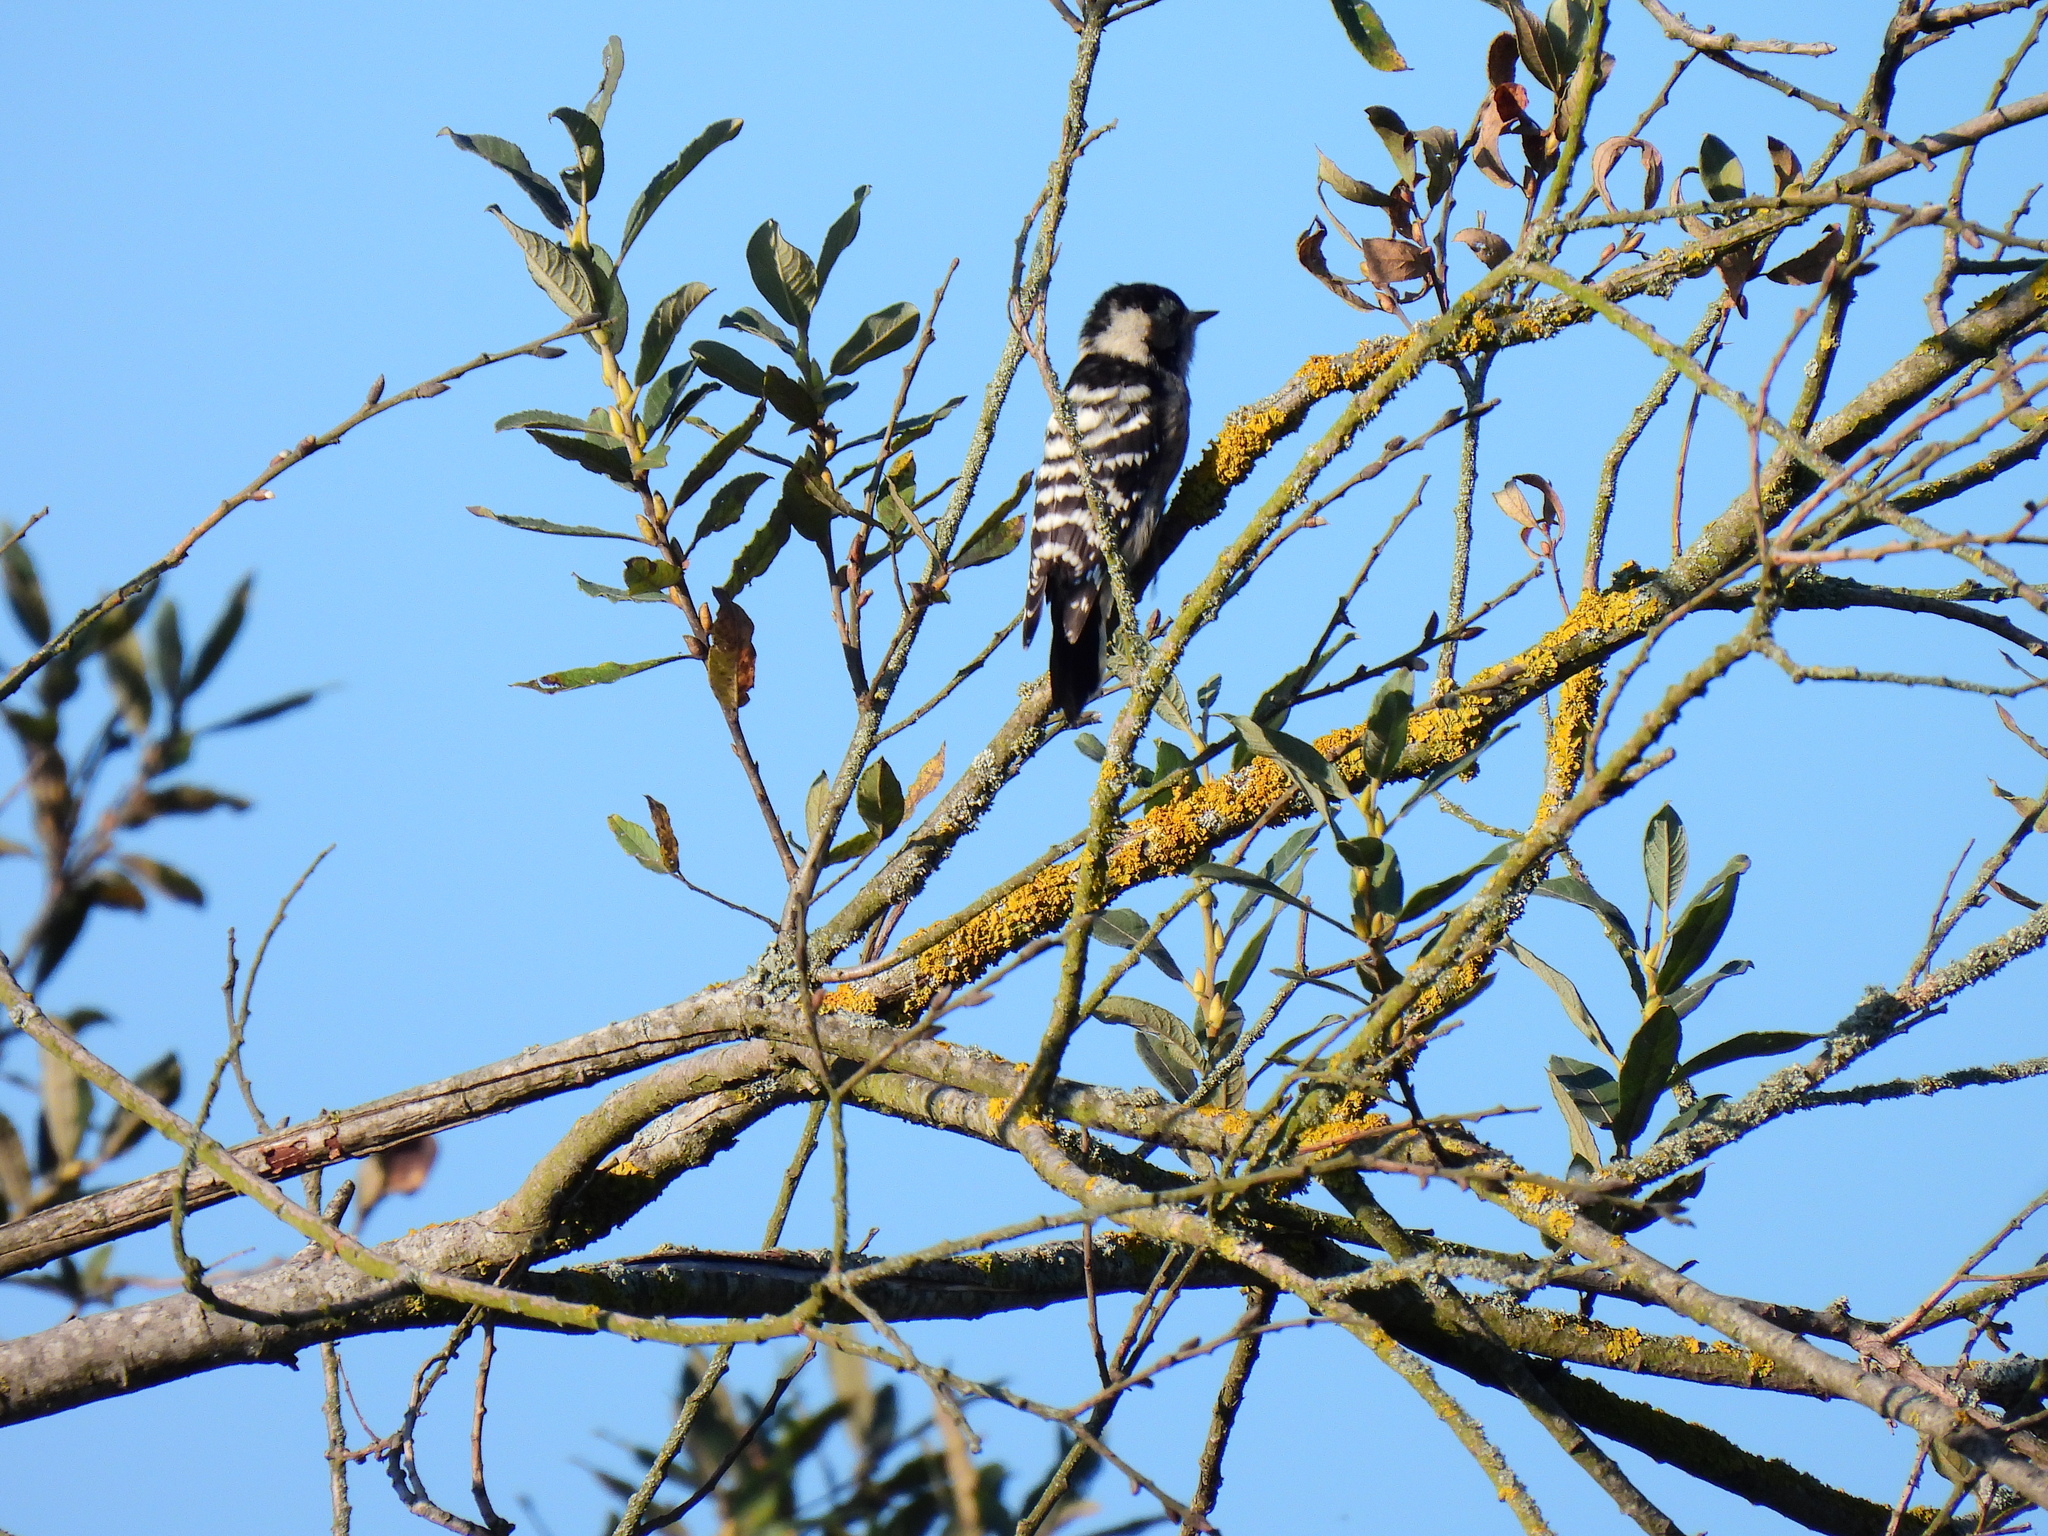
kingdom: Animalia
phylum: Chordata
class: Aves
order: Piciformes
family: Picidae
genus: Dryobates
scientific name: Dryobates minor
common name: Lesser spotted woodpecker
